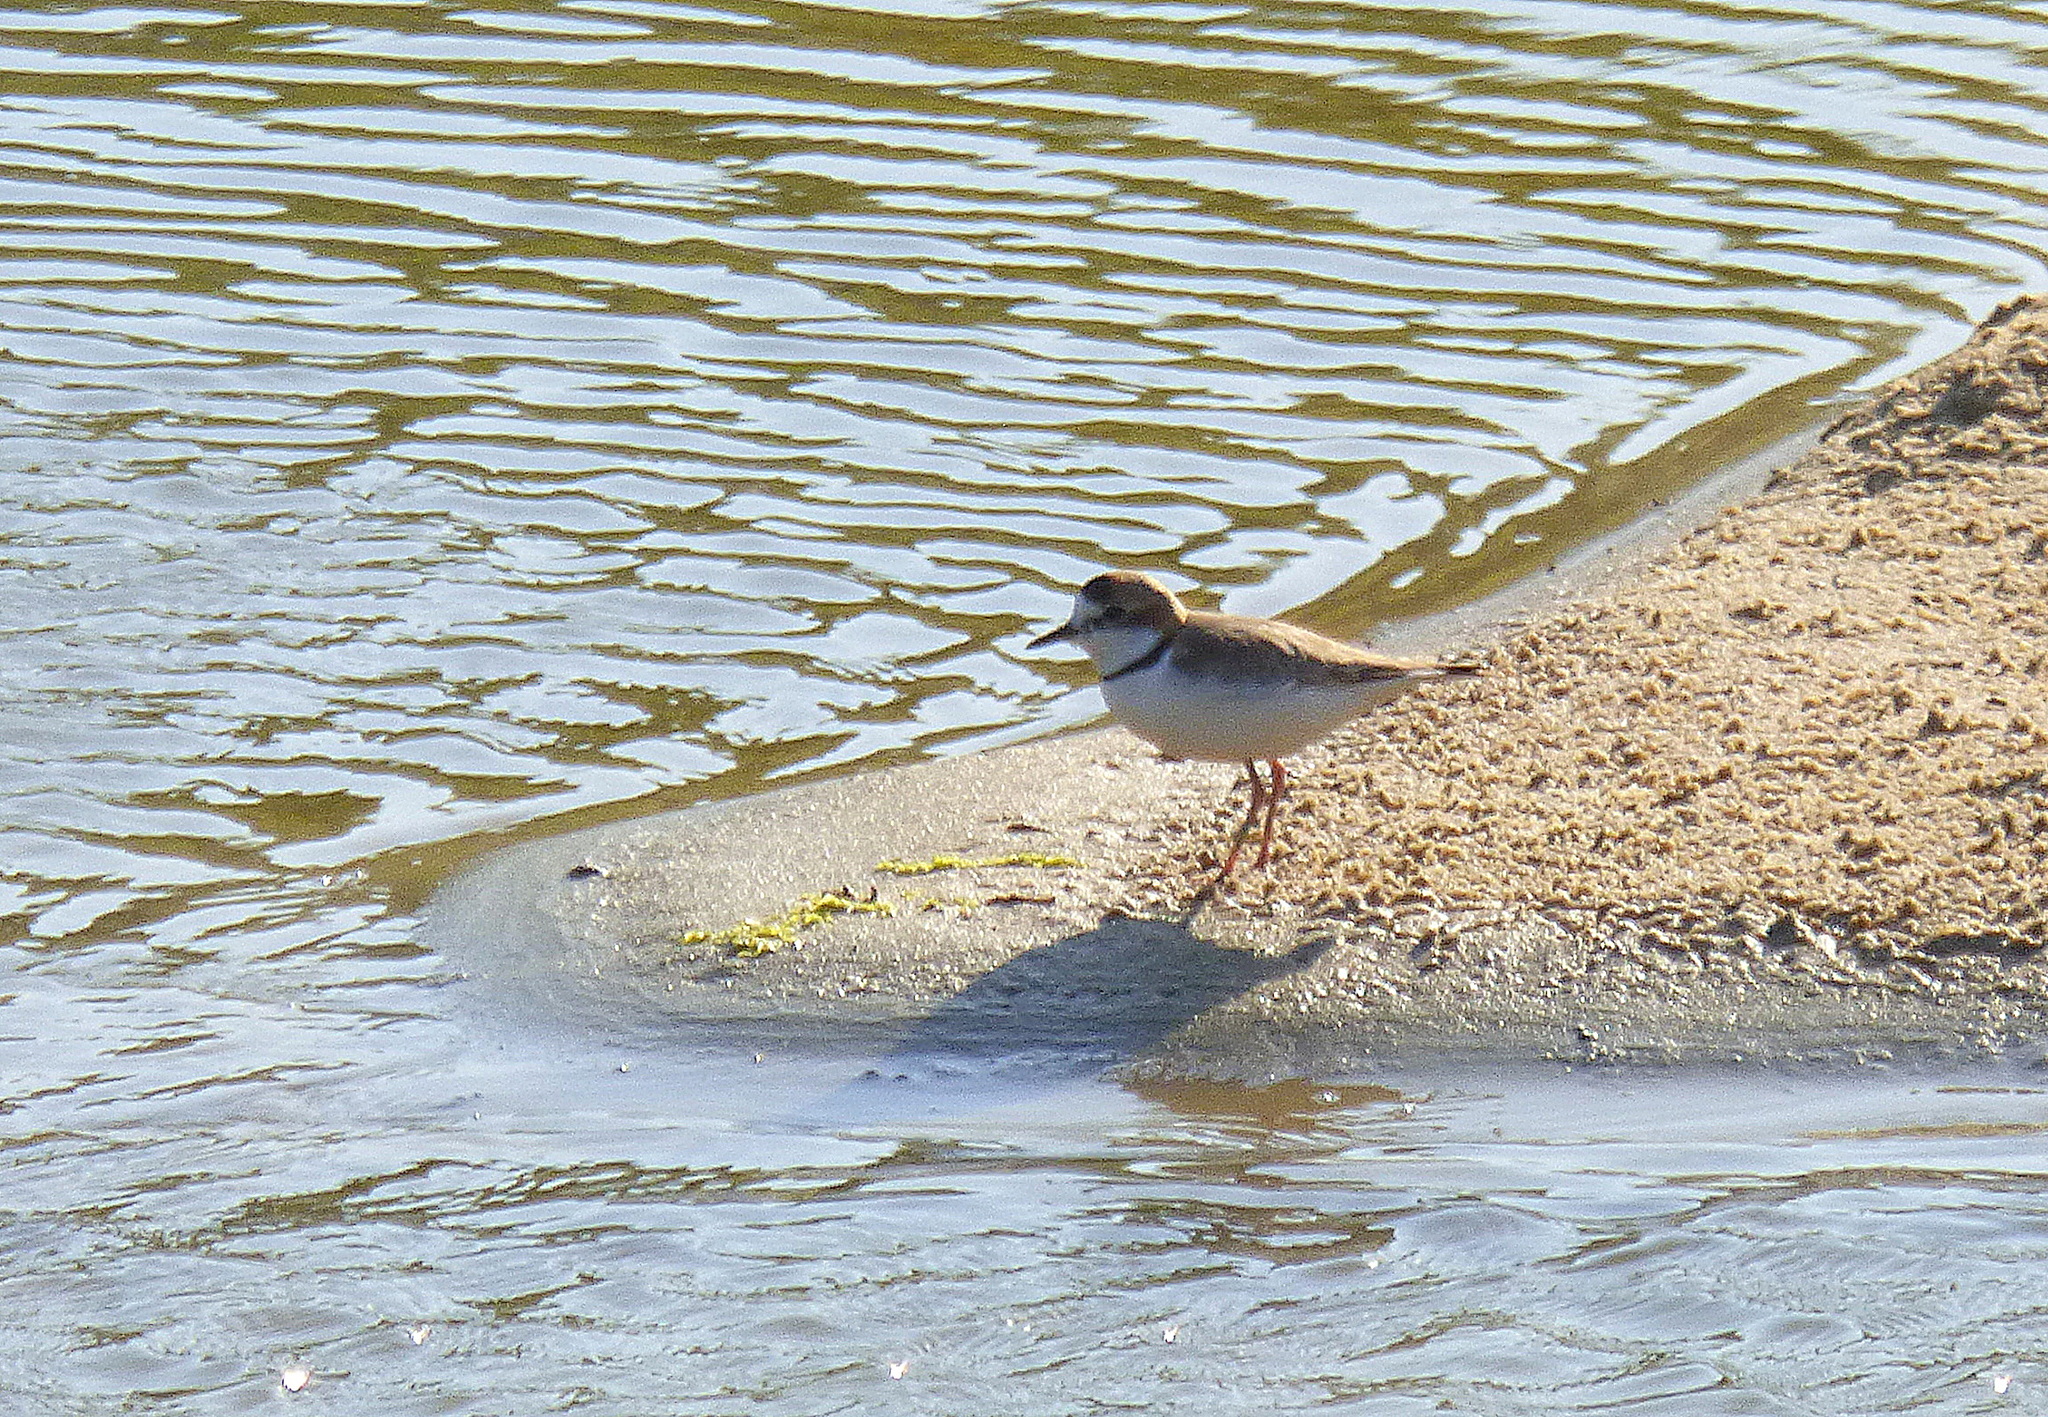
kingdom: Animalia
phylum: Chordata
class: Aves
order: Charadriiformes
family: Charadriidae
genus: Anarhynchus
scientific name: Anarhynchus
